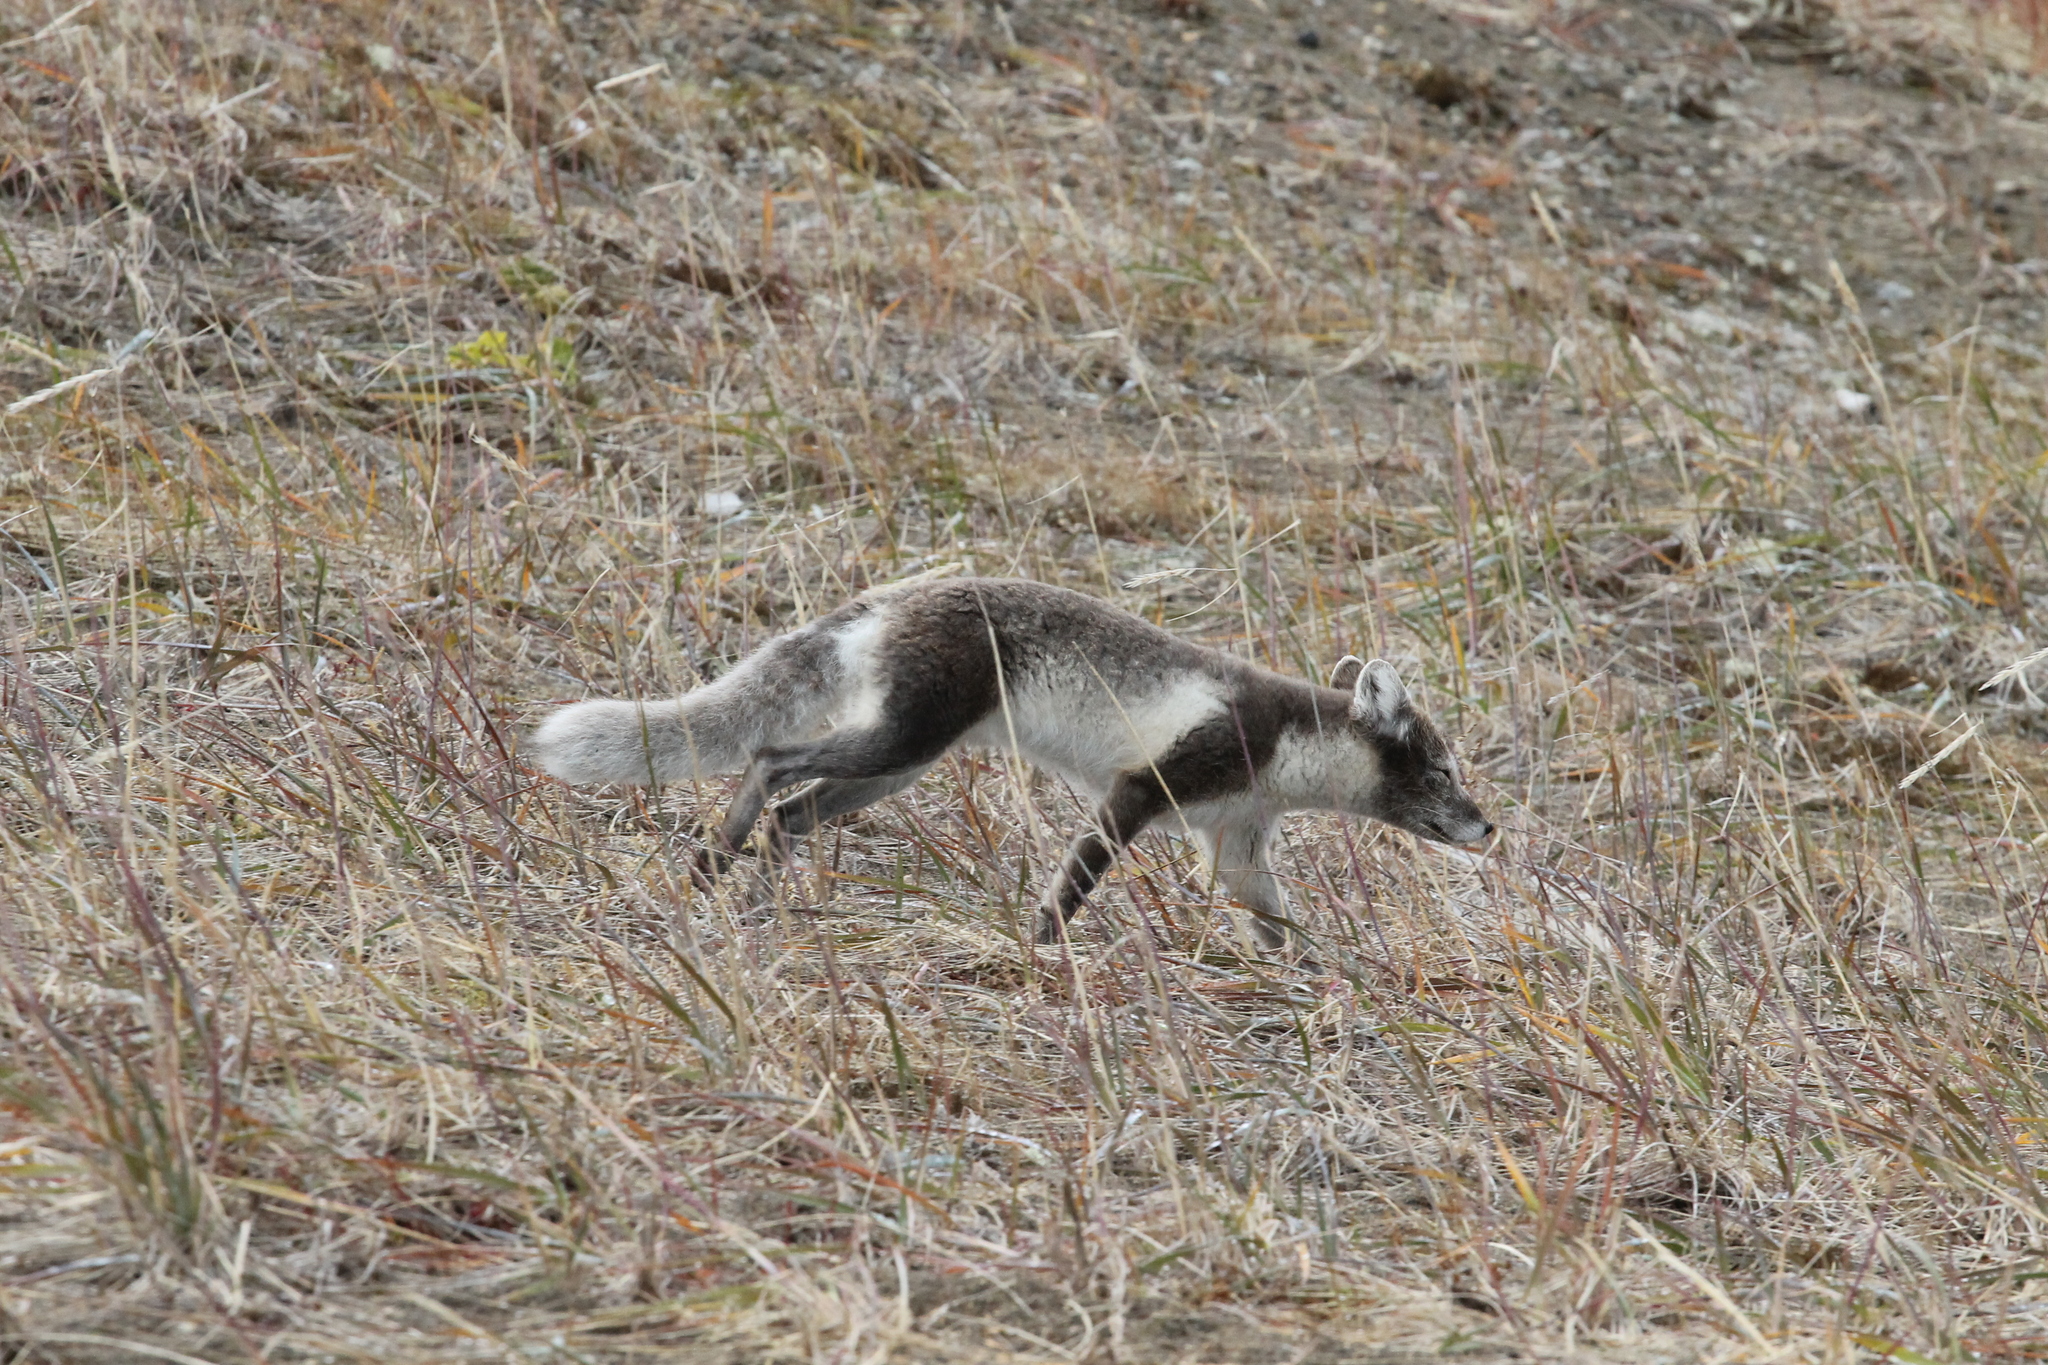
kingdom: Animalia
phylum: Chordata
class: Mammalia
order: Carnivora
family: Canidae
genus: Vulpes
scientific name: Vulpes lagopus
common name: Arctic fox
